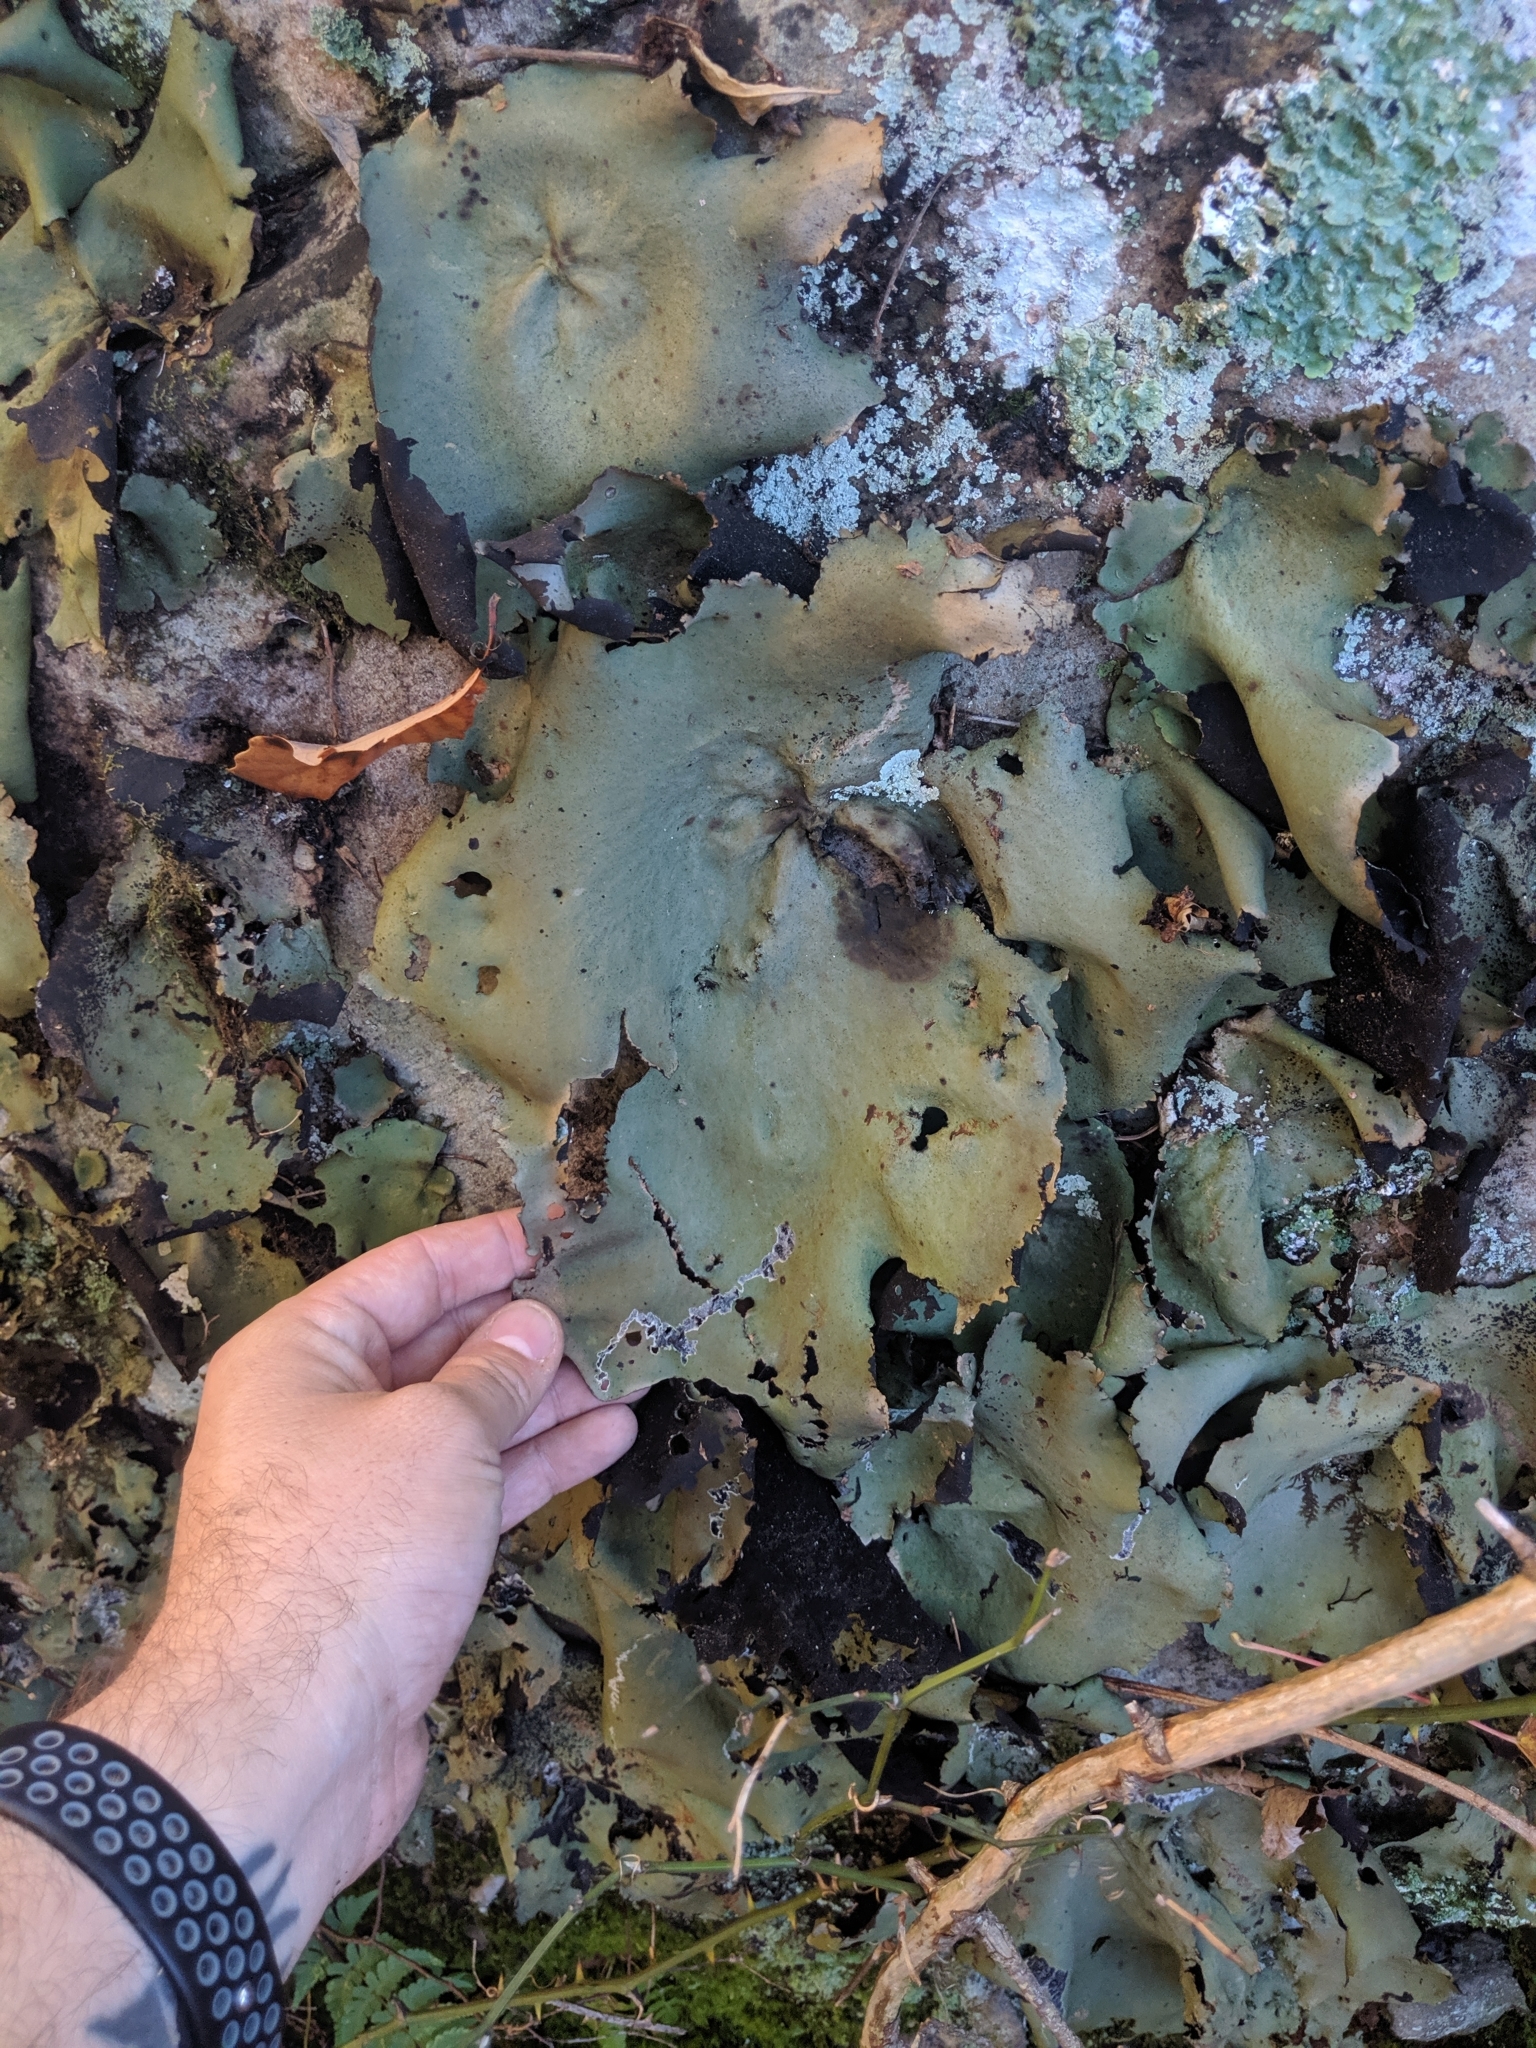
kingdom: Fungi
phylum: Ascomycota
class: Lecanoromycetes
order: Umbilicariales
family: Umbilicariaceae
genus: Umbilicaria
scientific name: Umbilicaria mammulata
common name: Smooth rock tripe
